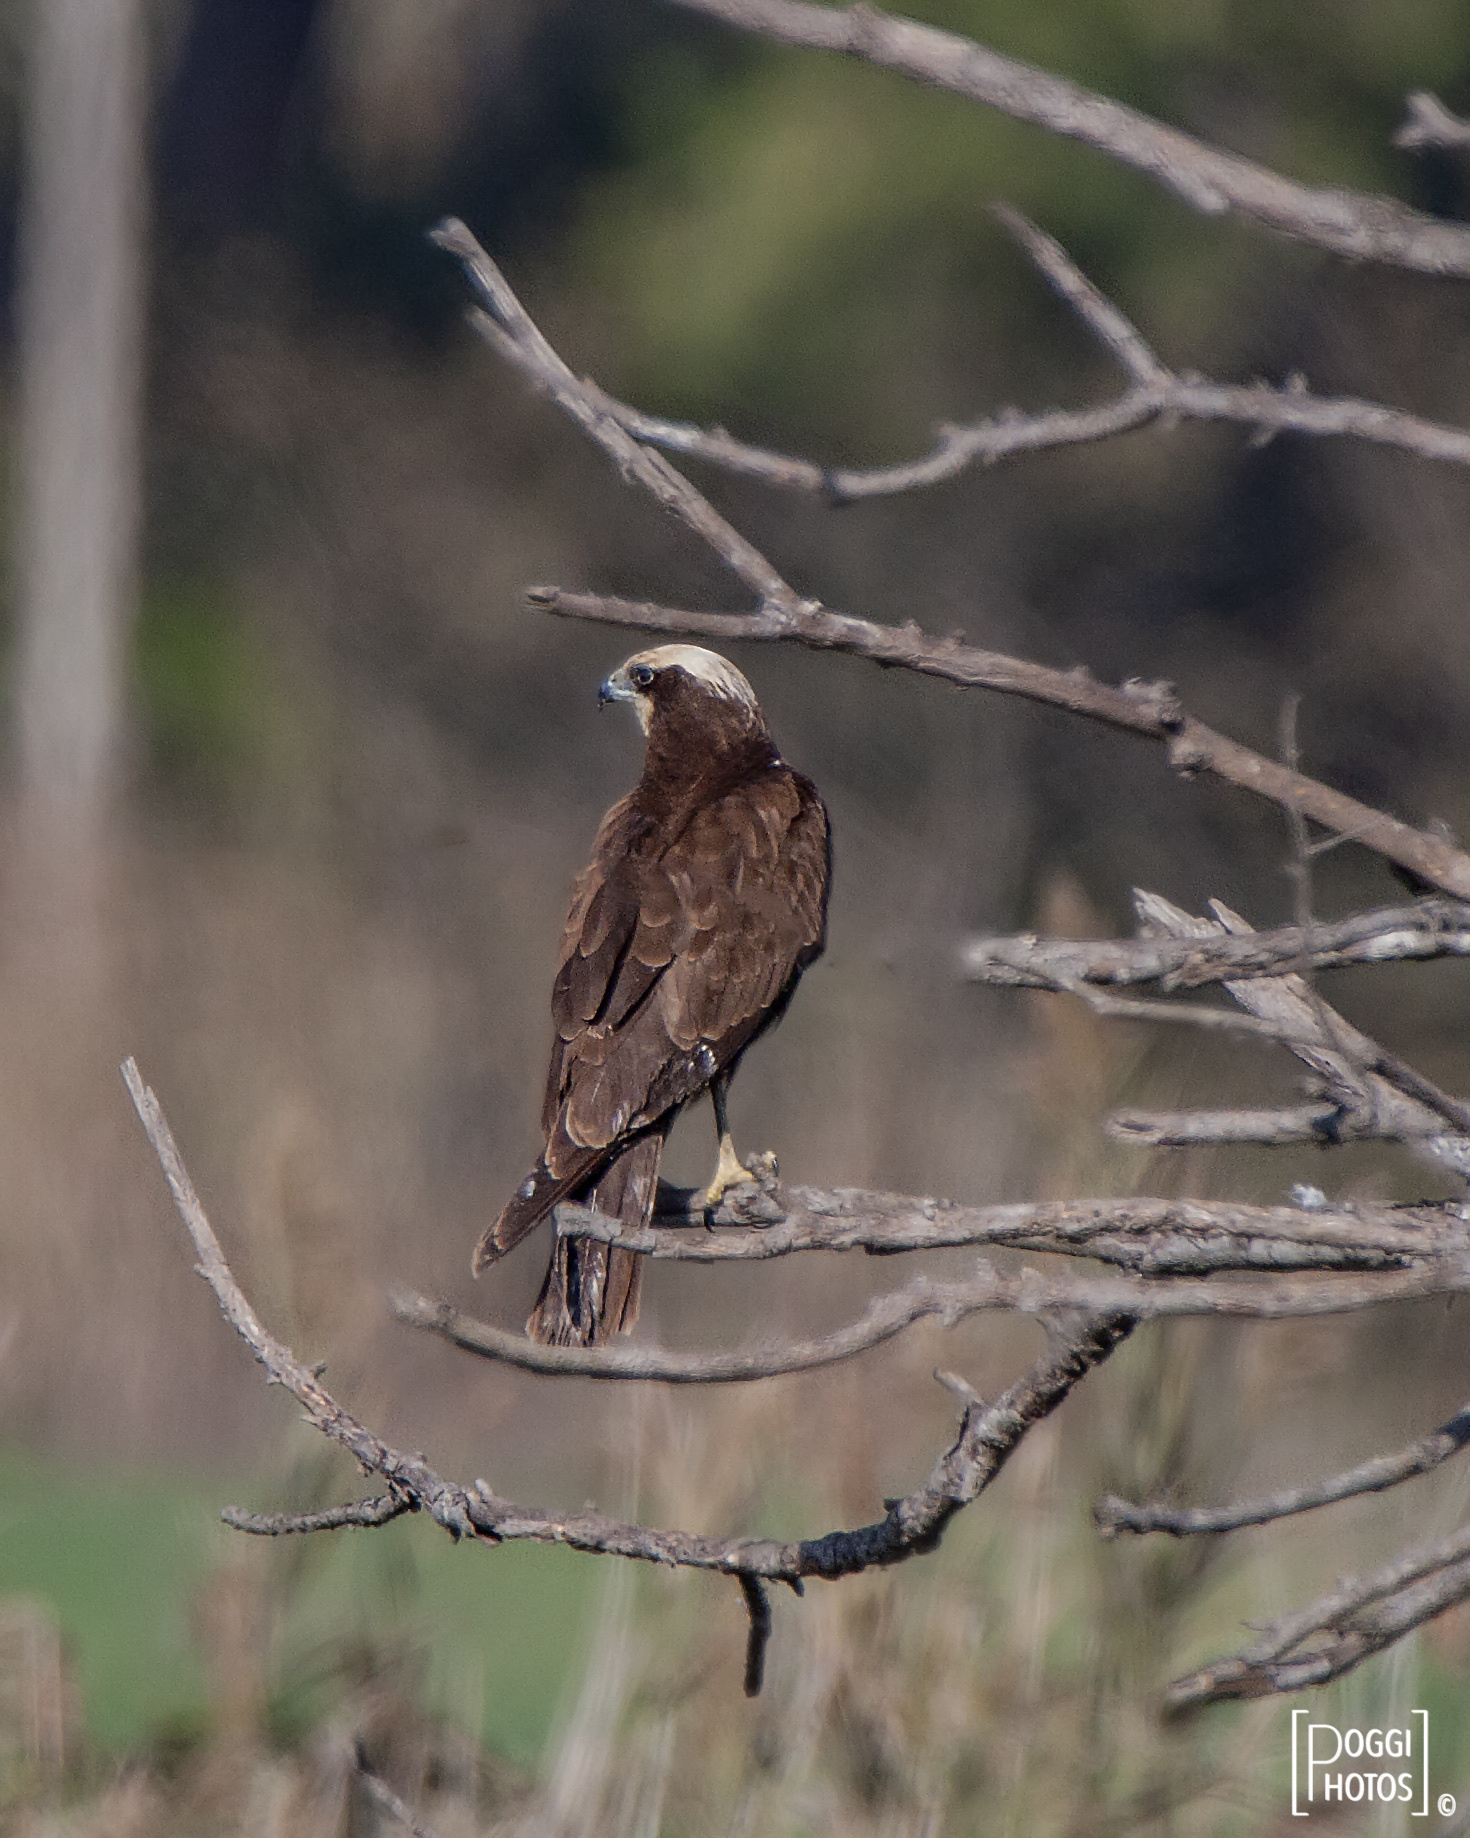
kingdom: Animalia
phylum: Chordata
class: Aves
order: Accipitriformes
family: Accipitridae
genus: Circus
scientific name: Circus aeruginosus
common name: Western marsh harrier
